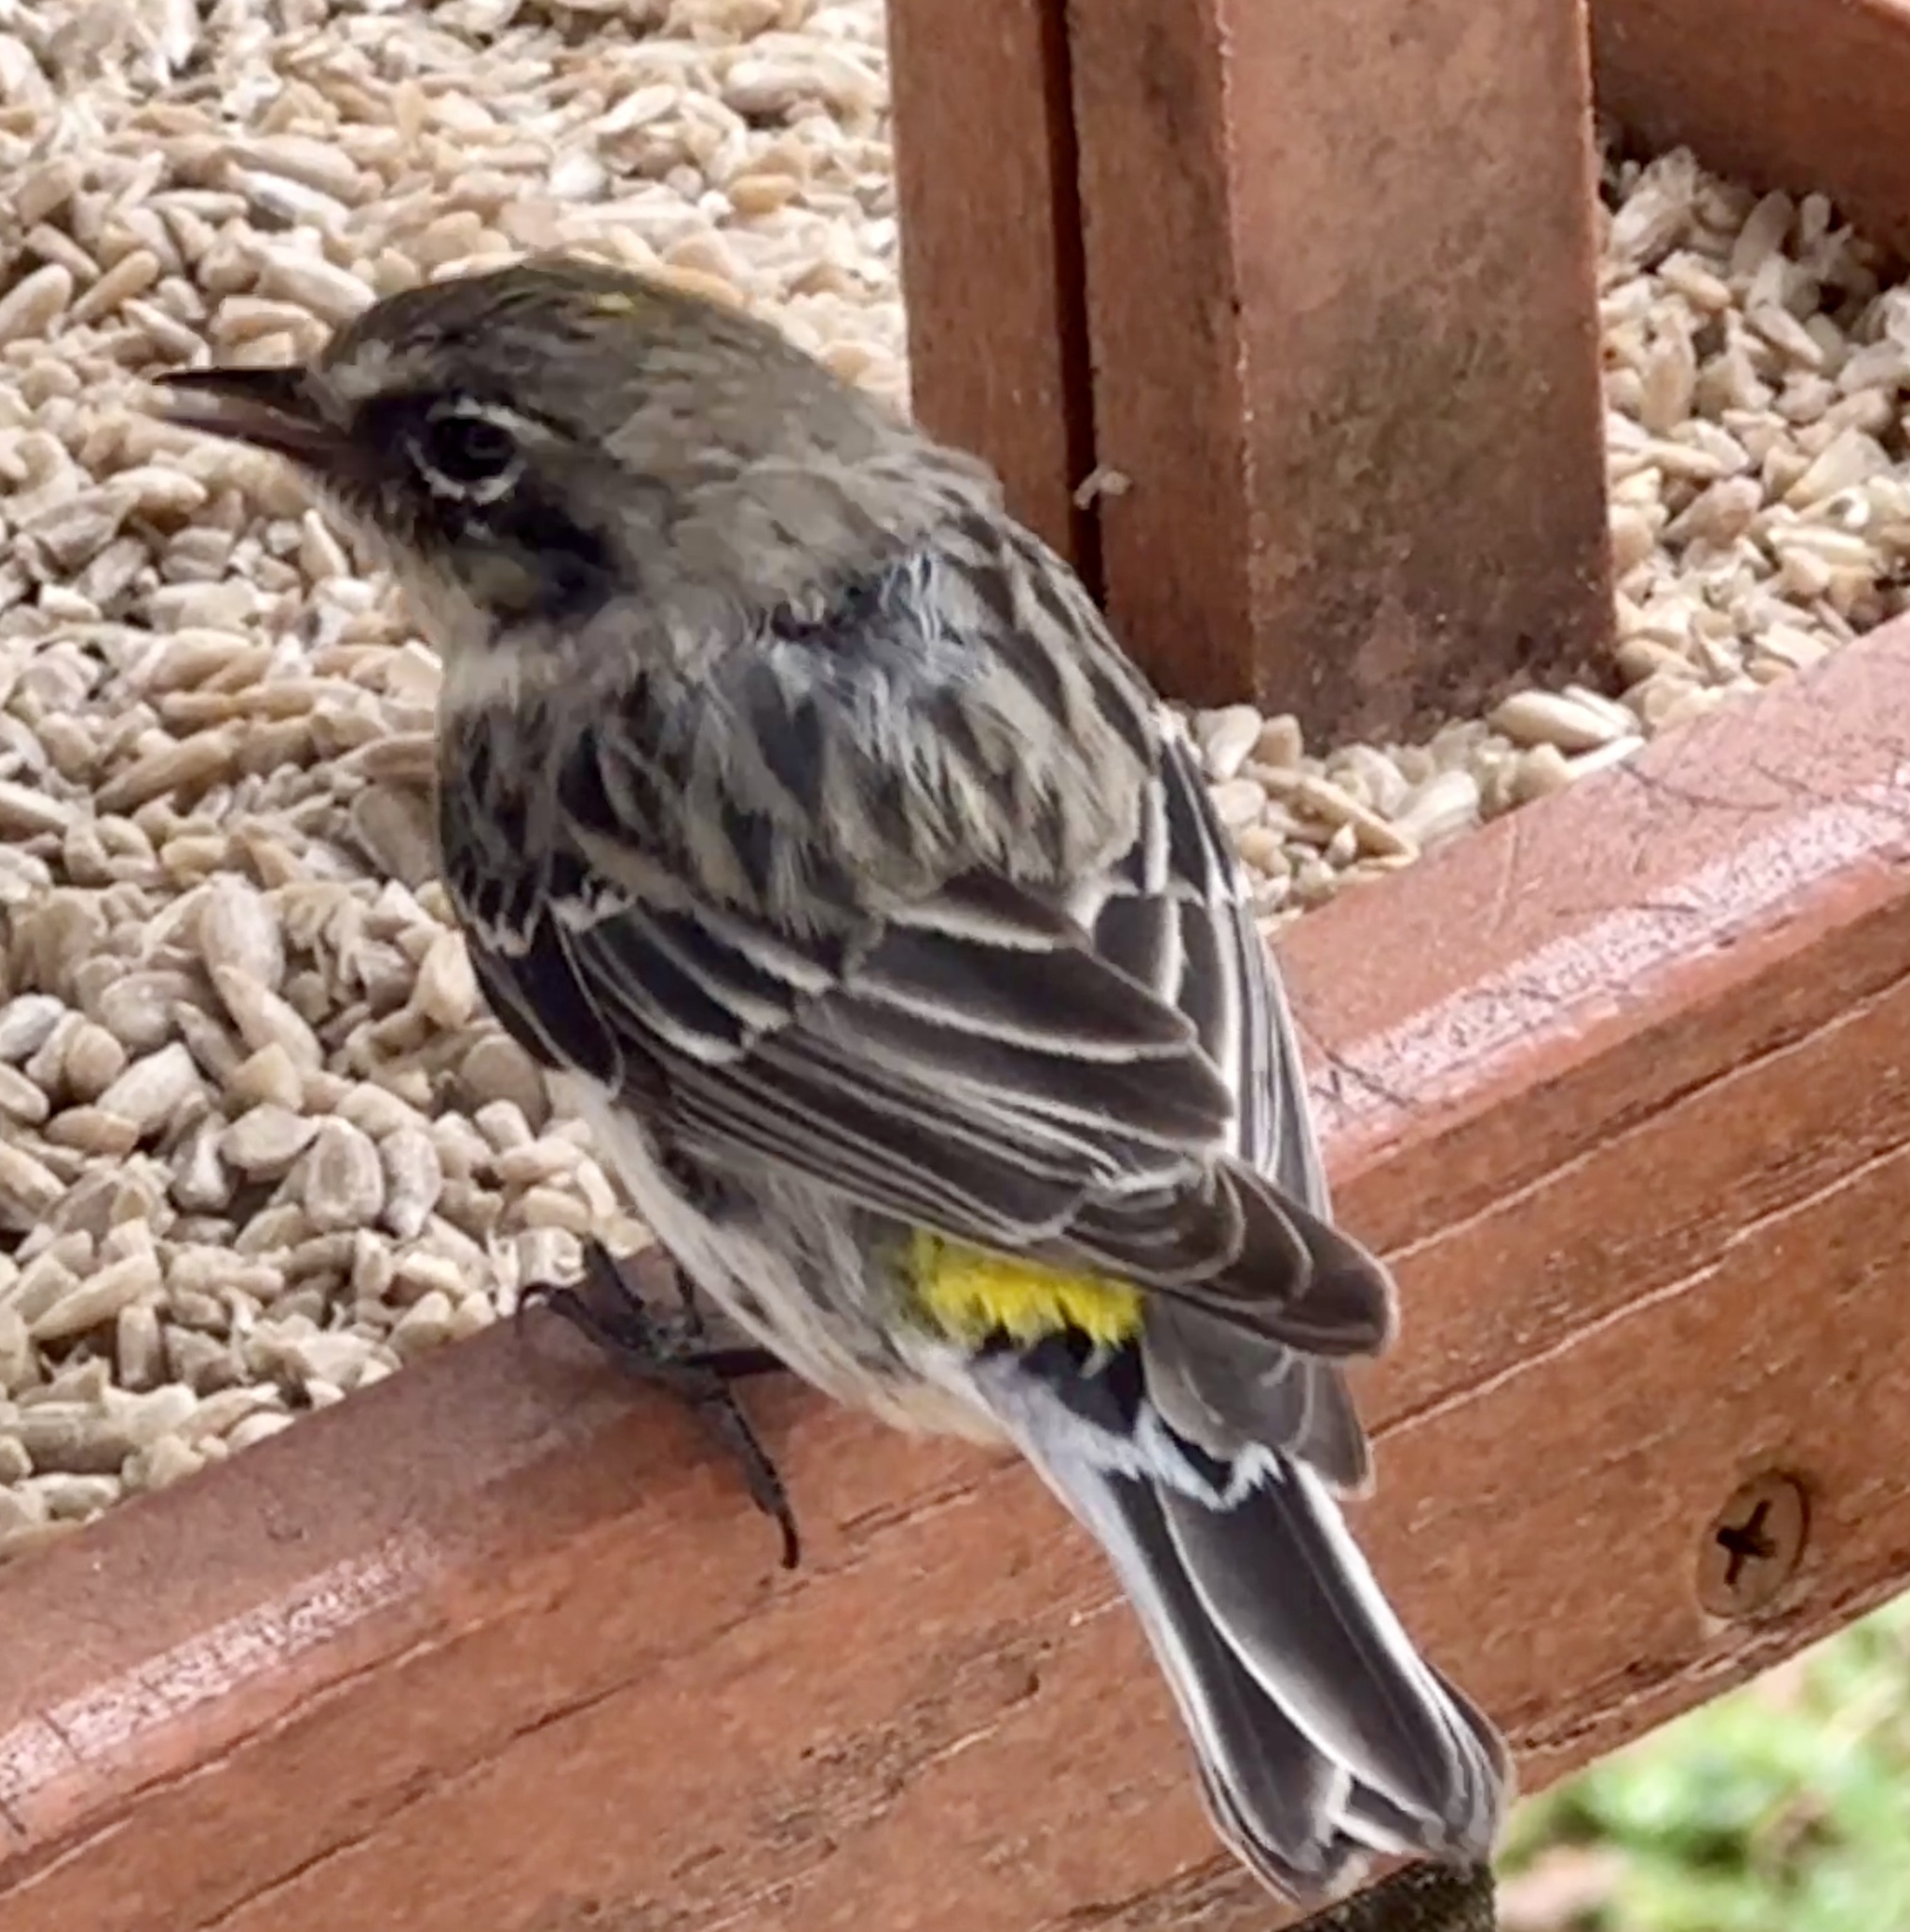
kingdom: Animalia
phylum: Chordata
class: Aves
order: Passeriformes
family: Parulidae
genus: Setophaga
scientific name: Setophaga coronata
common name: Myrtle warbler
